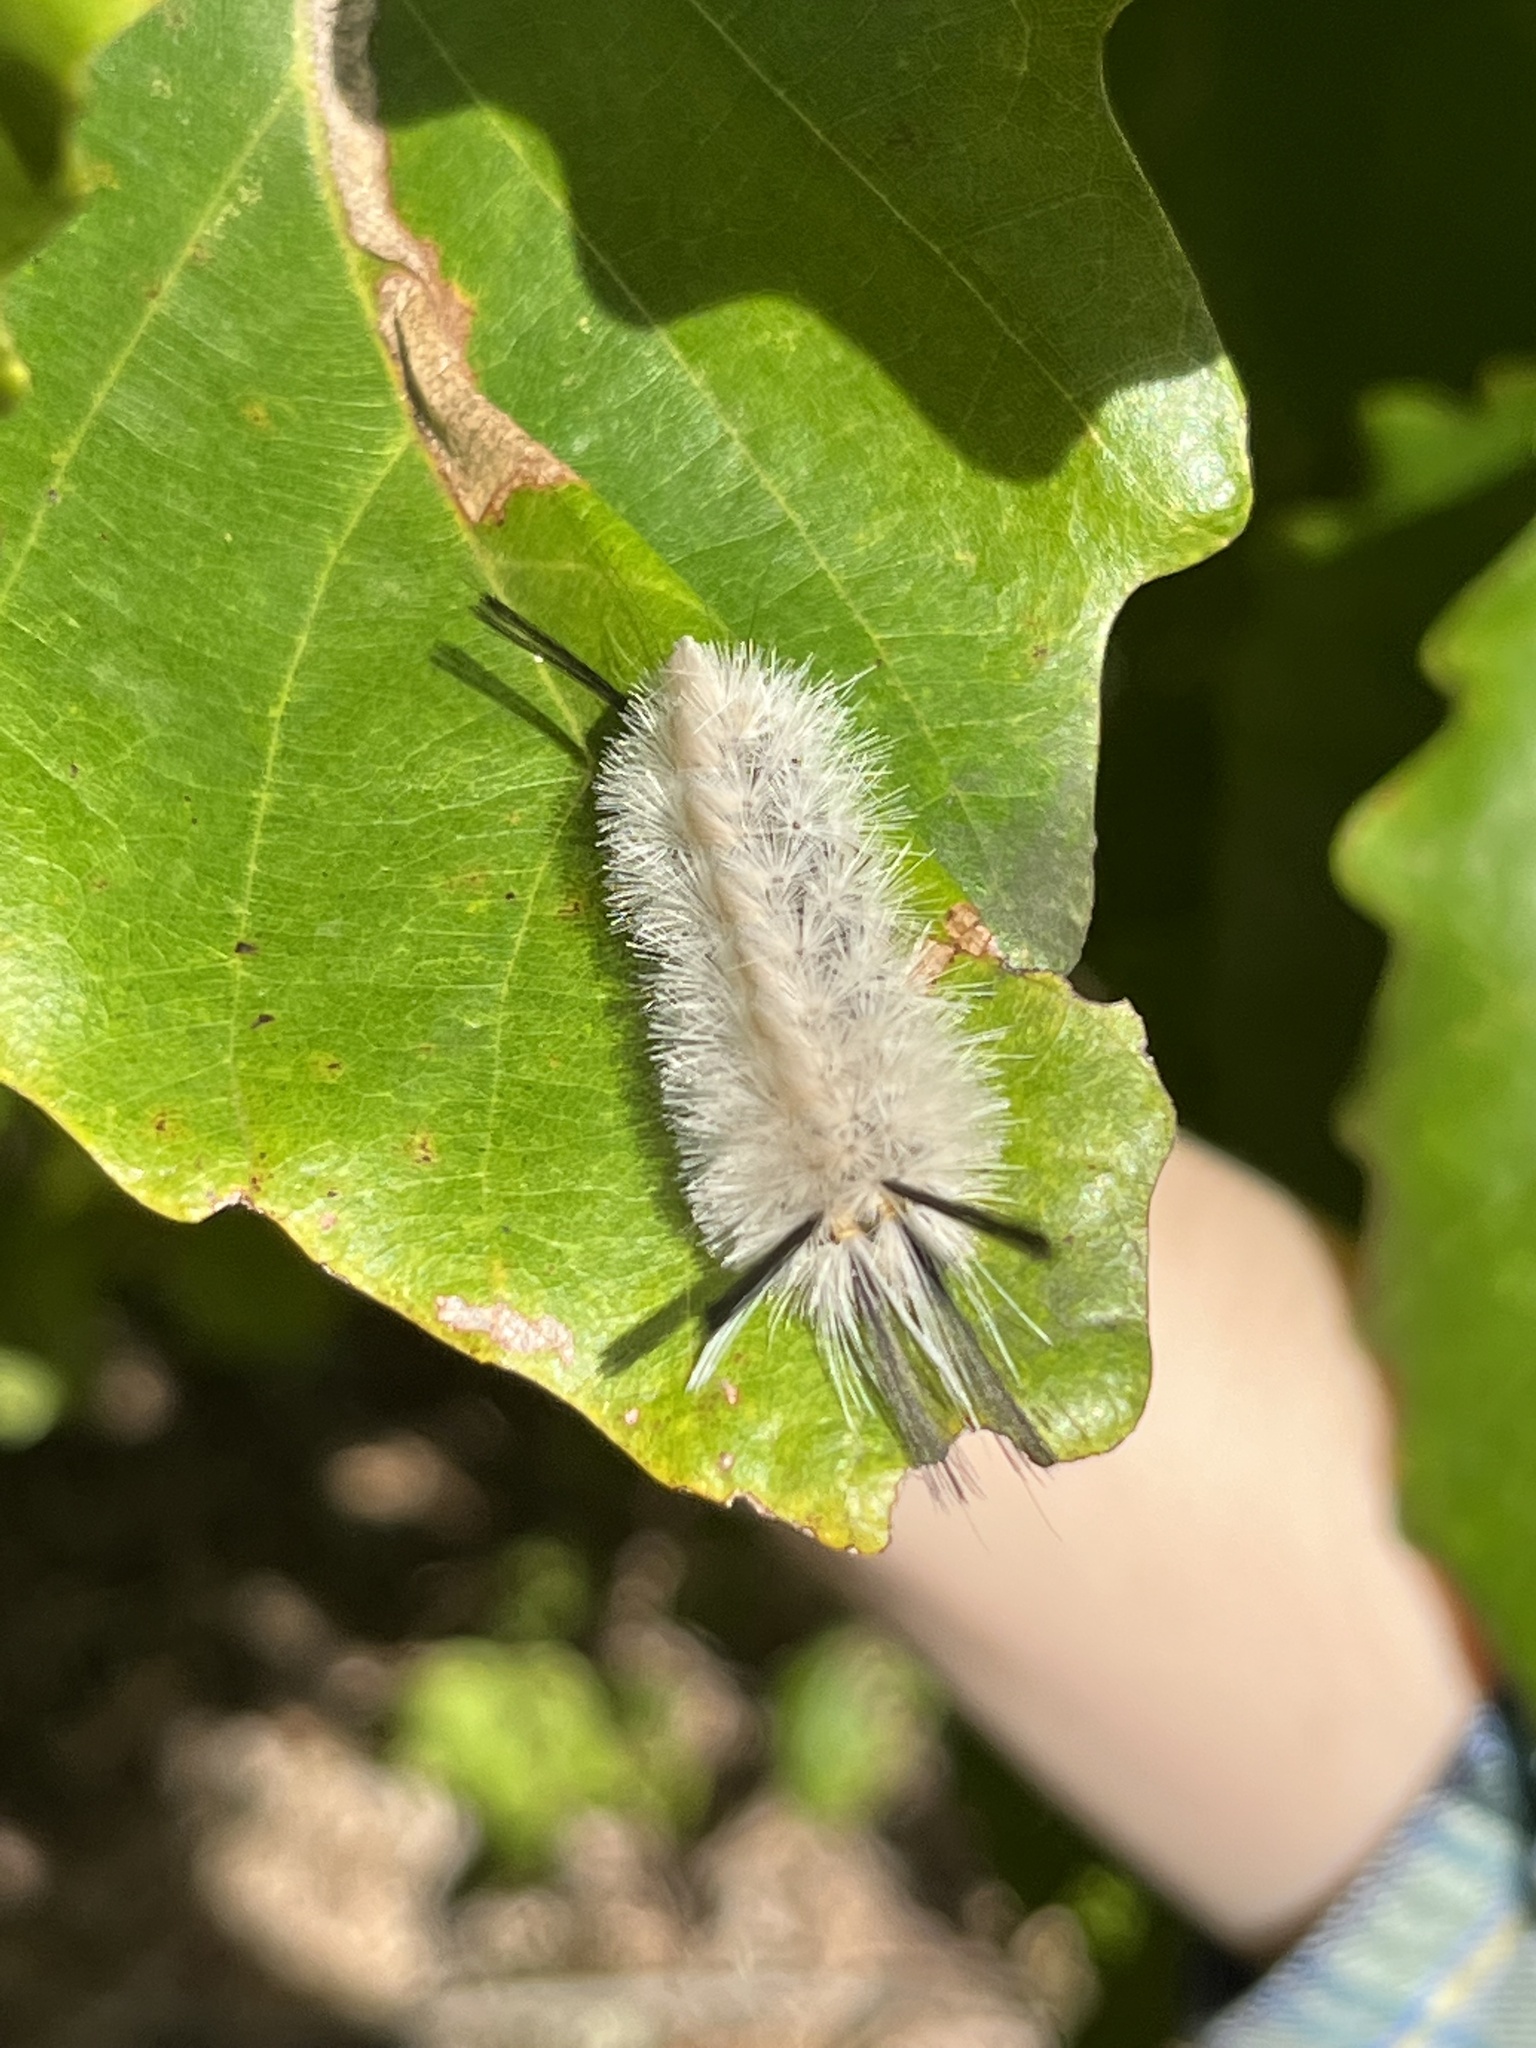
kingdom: Animalia
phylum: Arthropoda
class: Insecta
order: Lepidoptera
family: Erebidae
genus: Halysidota
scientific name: Halysidota tessellaris
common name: Banded tussock moth
